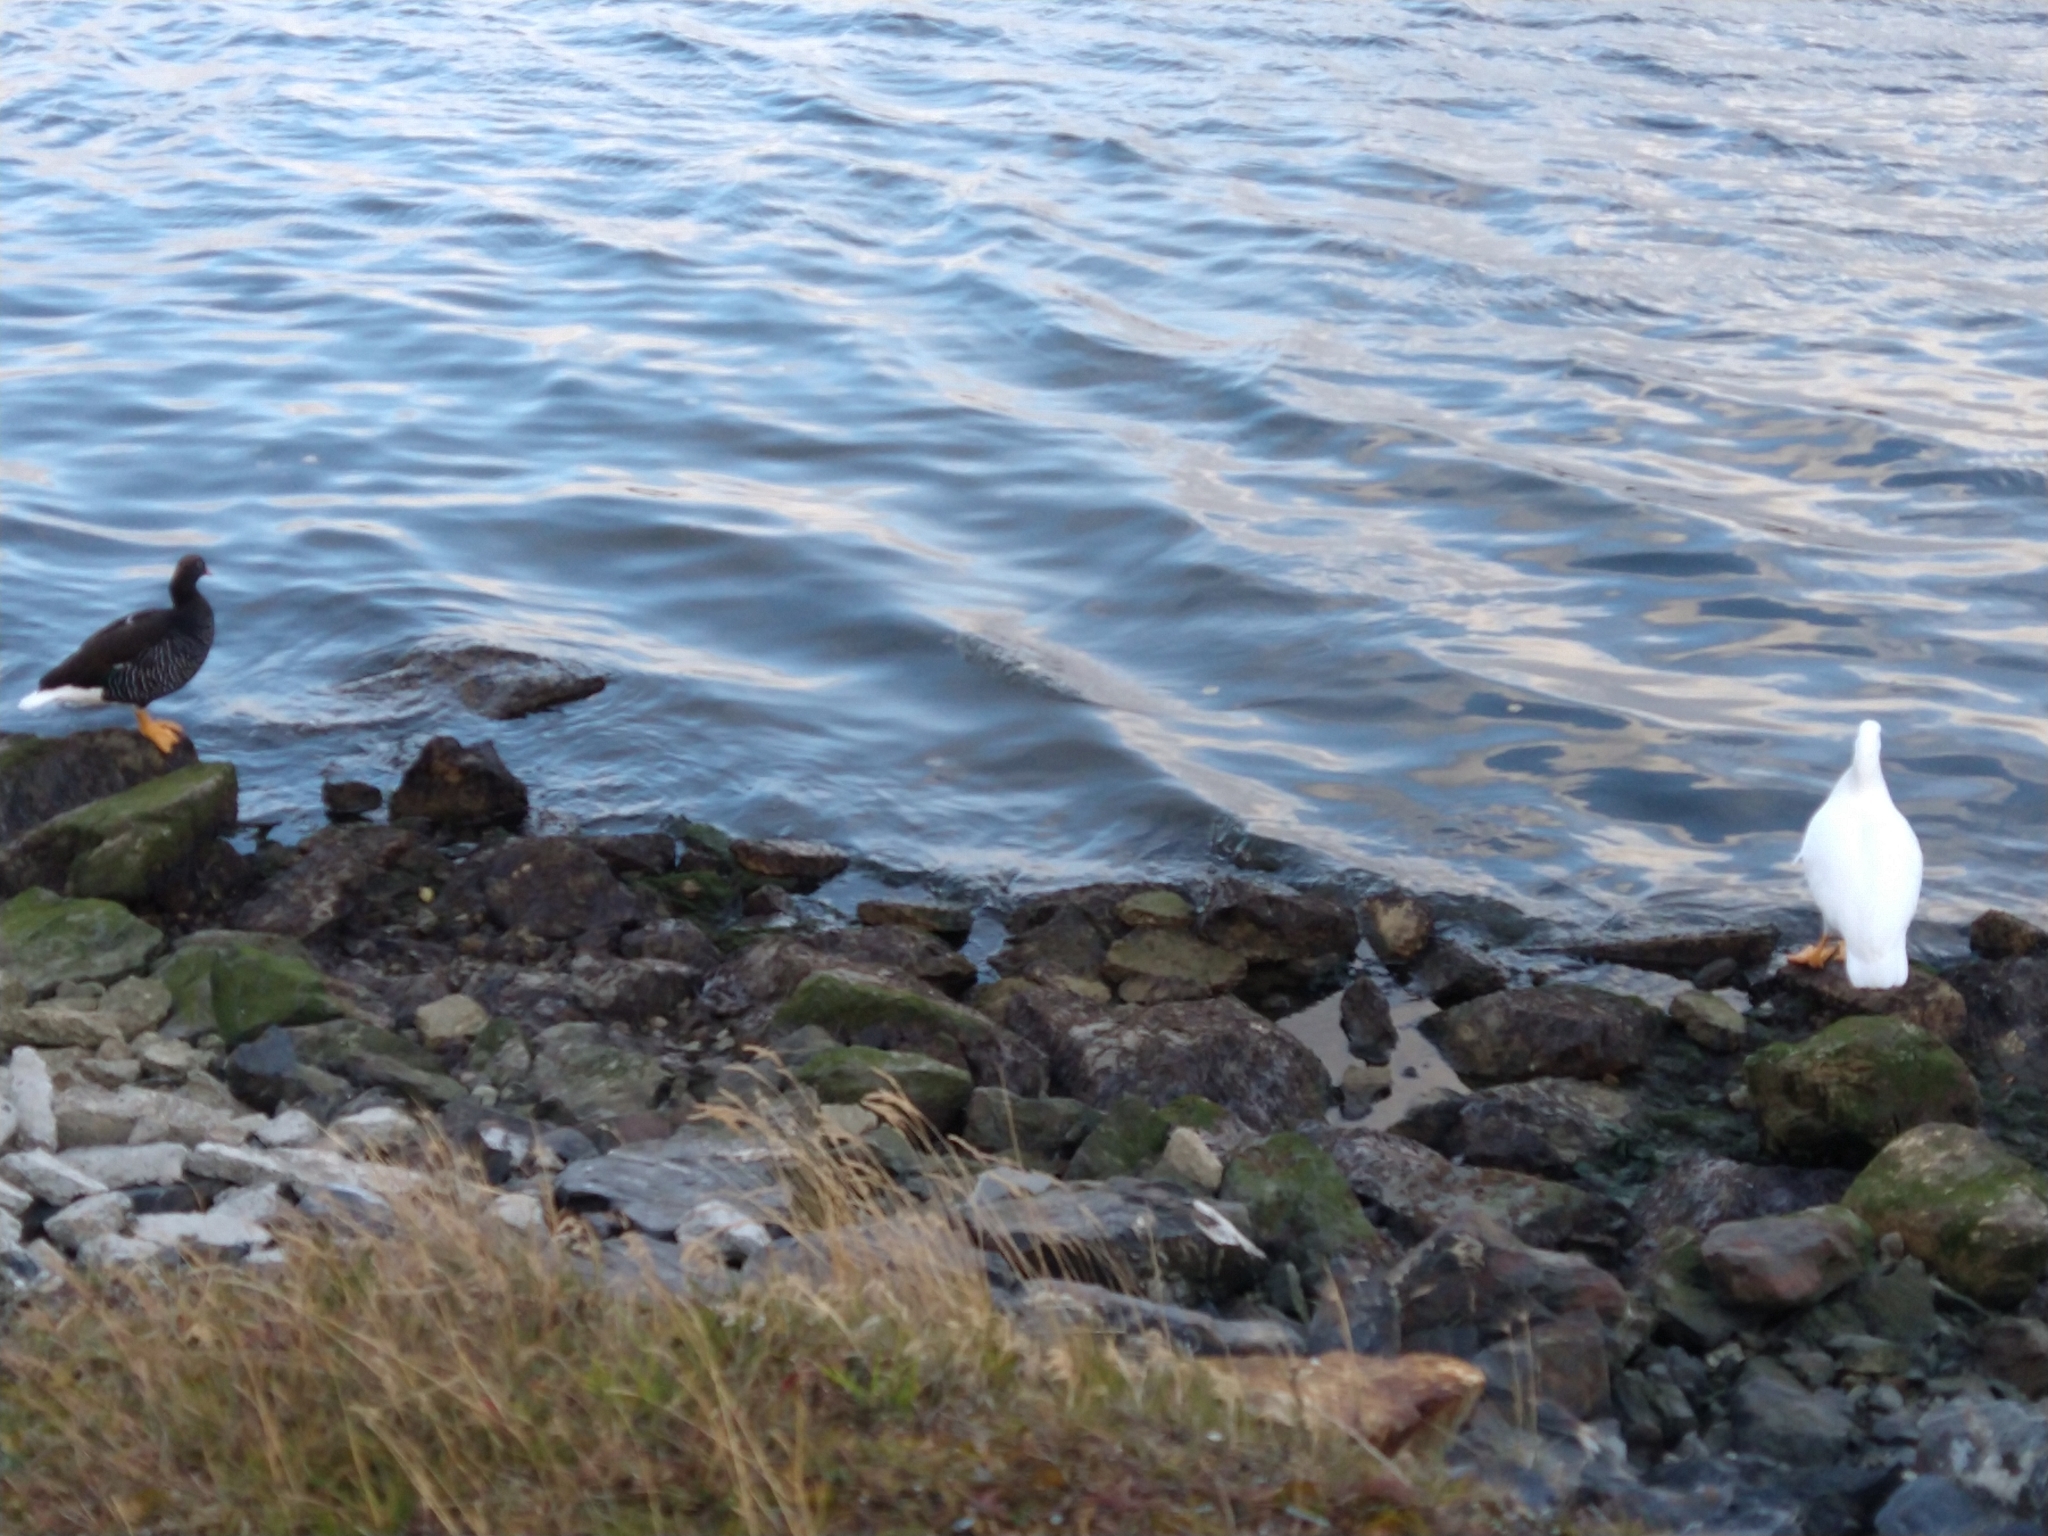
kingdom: Animalia
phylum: Chordata
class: Aves
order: Anseriformes
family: Anatidae
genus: Chloephaga
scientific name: Chloephaga hybrida
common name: Kelp goose
